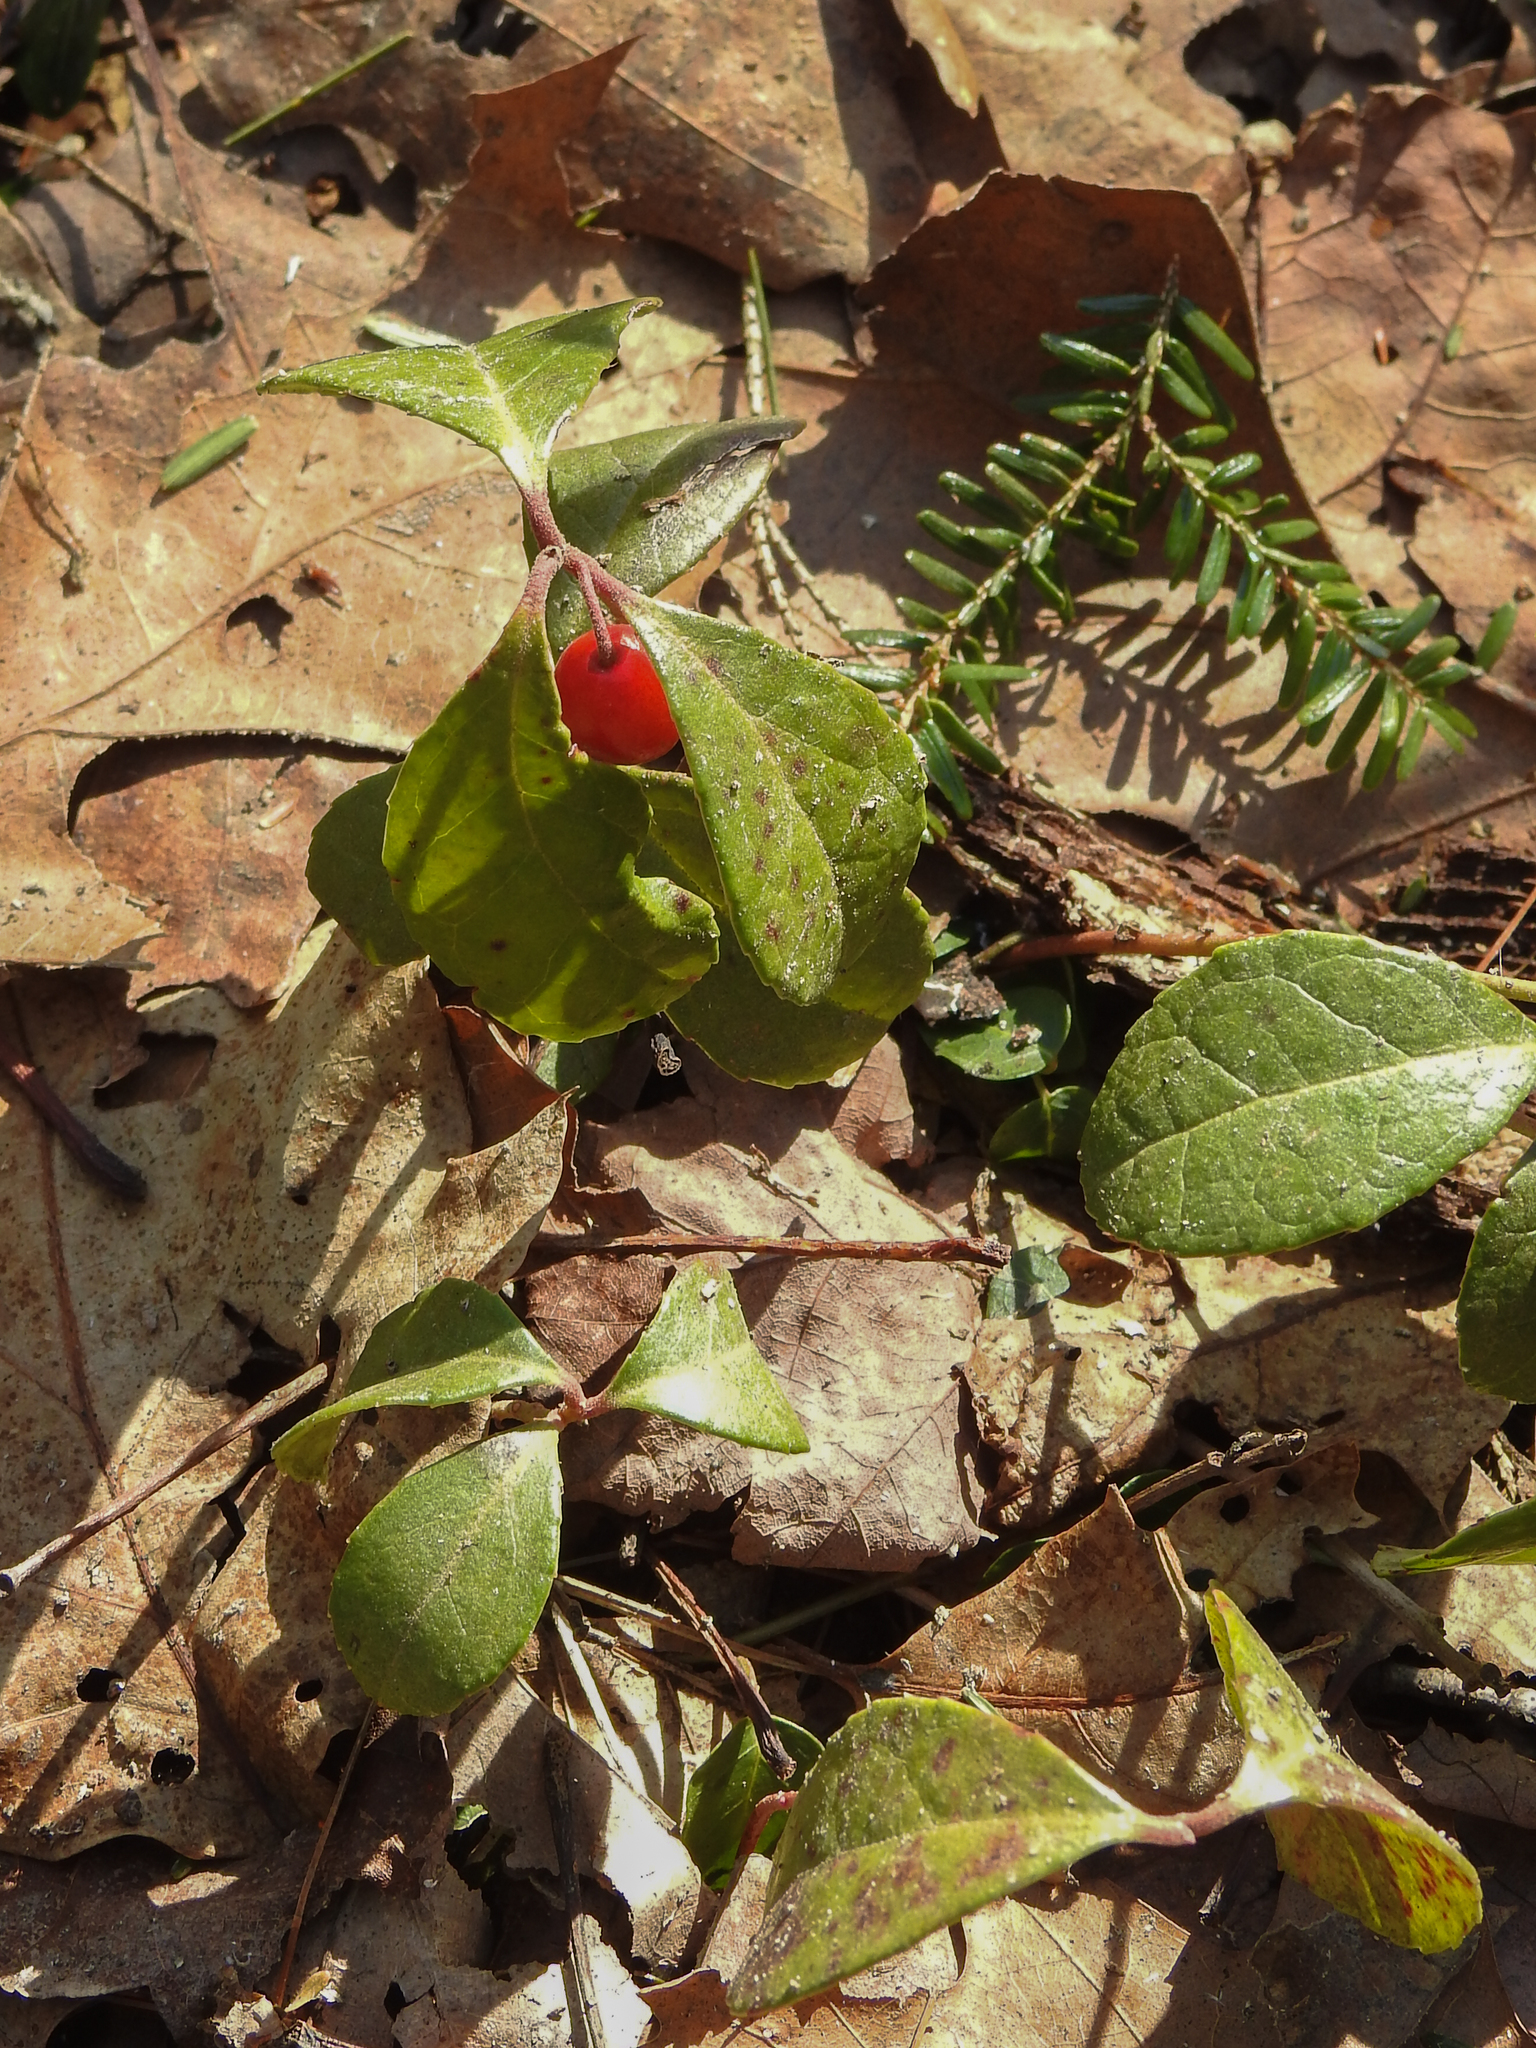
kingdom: Plantae
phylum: Tracheophyta
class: Magnoliopsida
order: Ericales
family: Ericaceae
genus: Gaultheria
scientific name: Gaultheria procumbens
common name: Checkerberry
